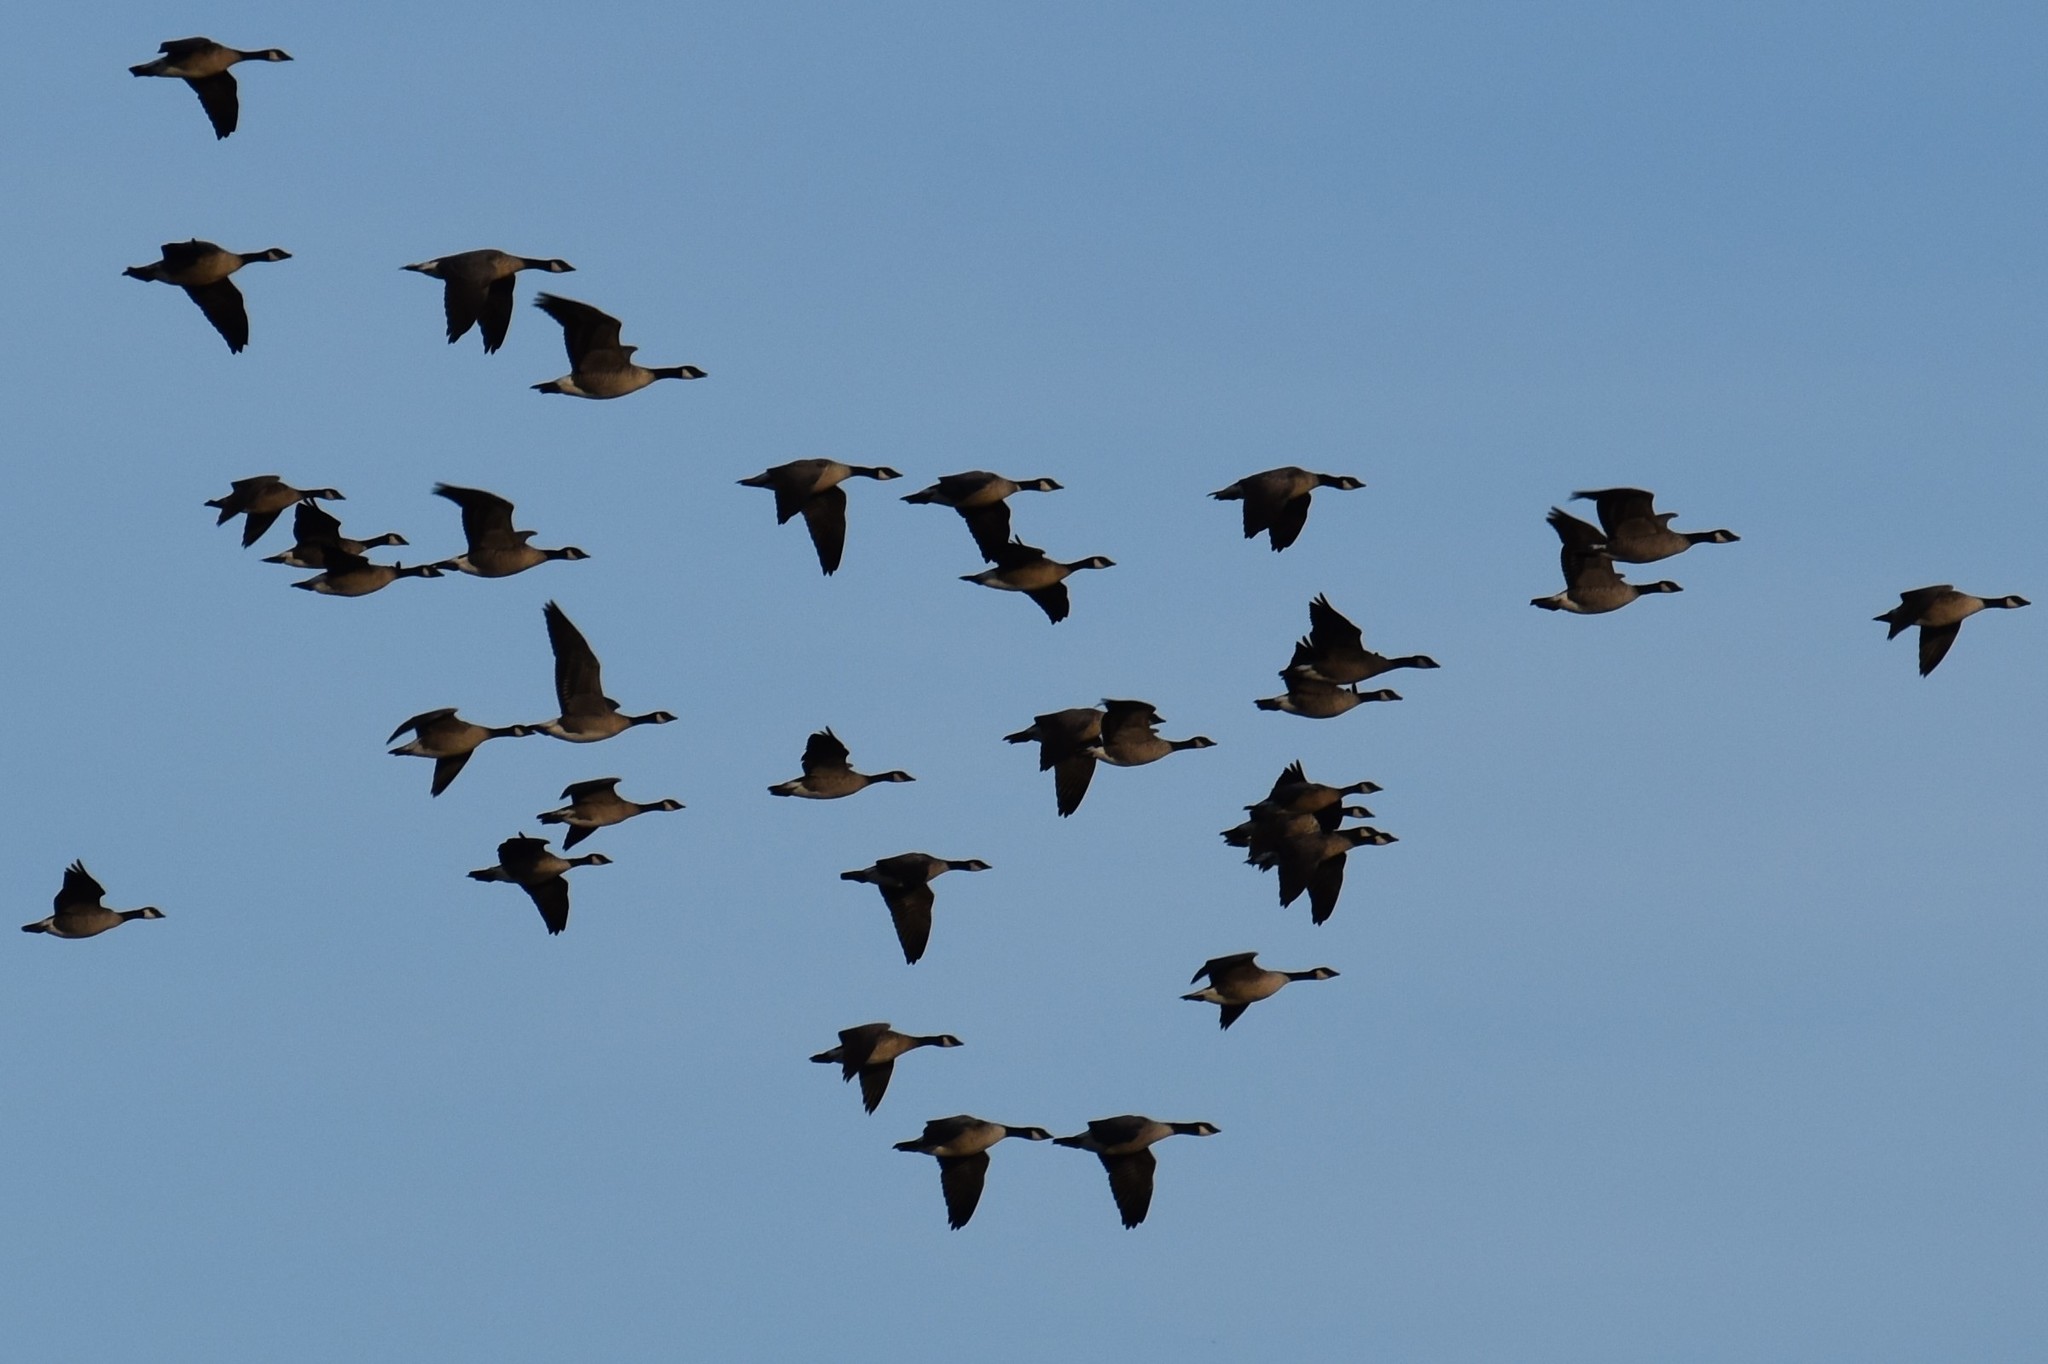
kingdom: Animalia
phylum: Chordata
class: Aves
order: Anseriformes
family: Anatidae
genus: Branta
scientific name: Branta canadensis
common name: Canada goose
